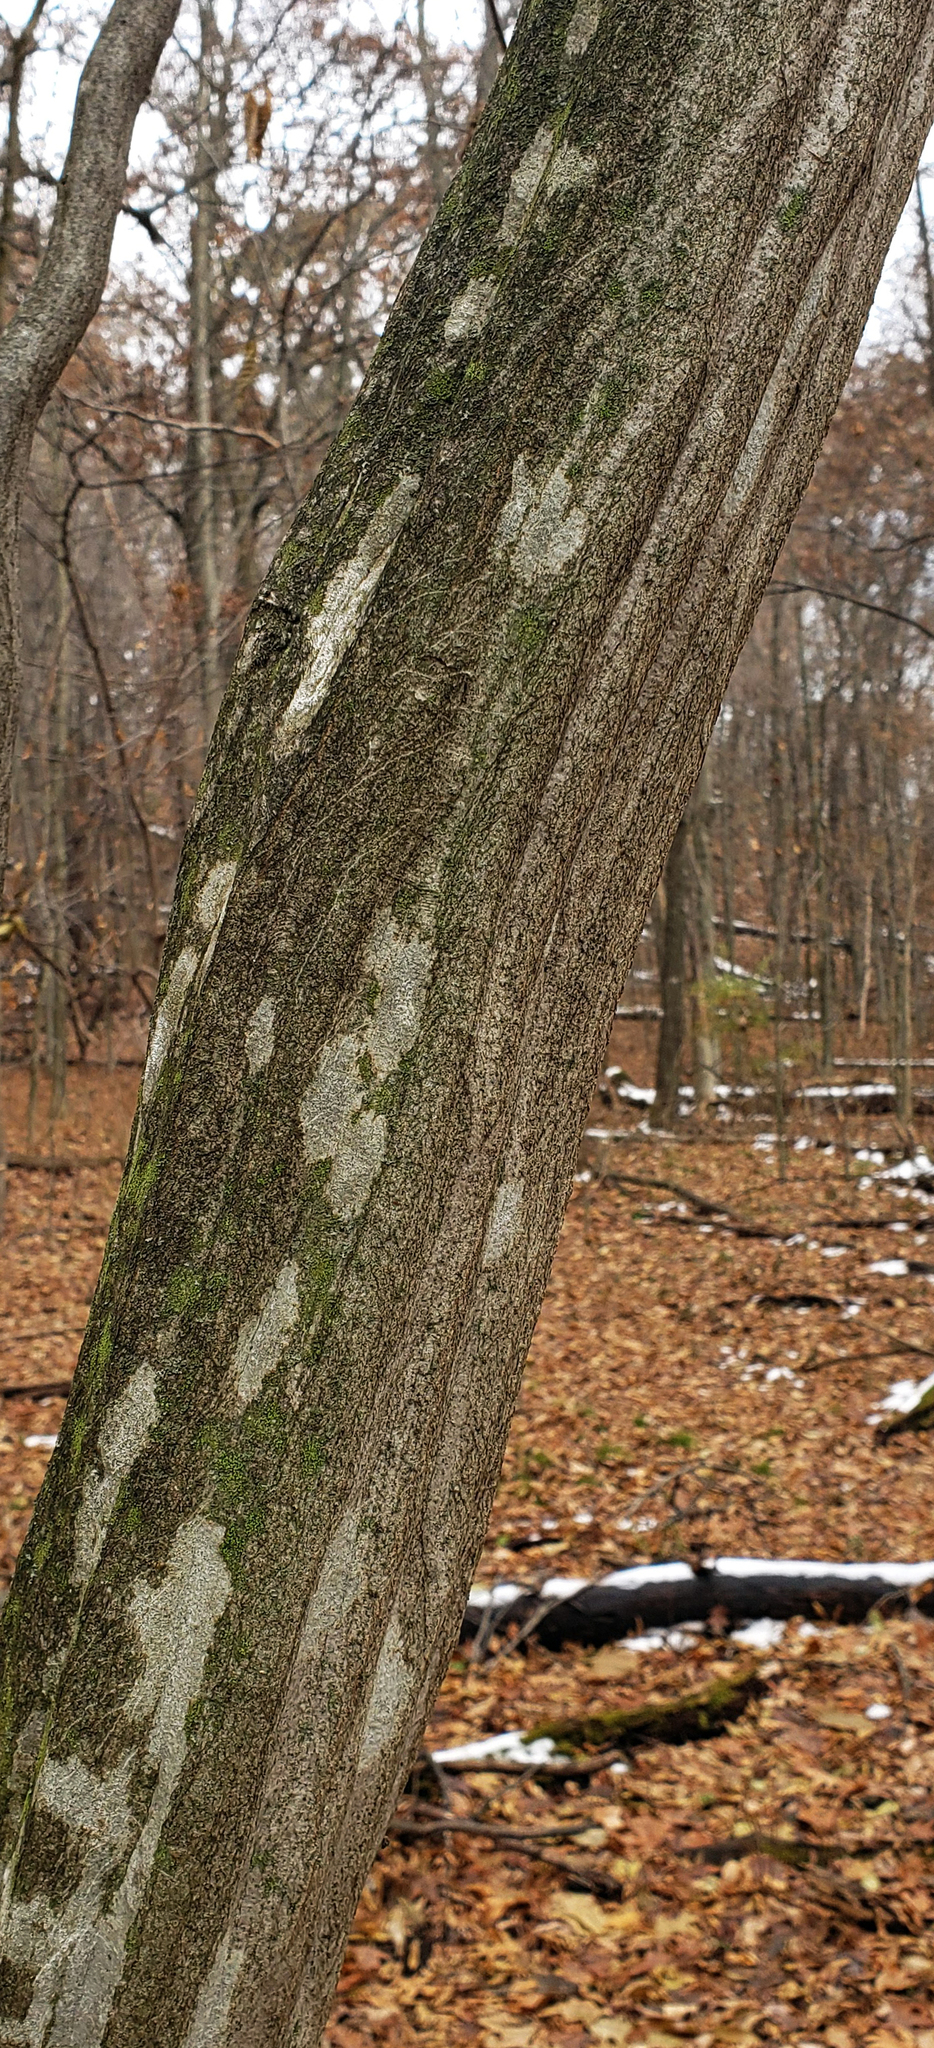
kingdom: Plantae
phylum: Tracheophyta
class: Magnoliopsida
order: Fagales
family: Betulaceae
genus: Carpinus
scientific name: Carpinus caroliniana
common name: American hornbeam
